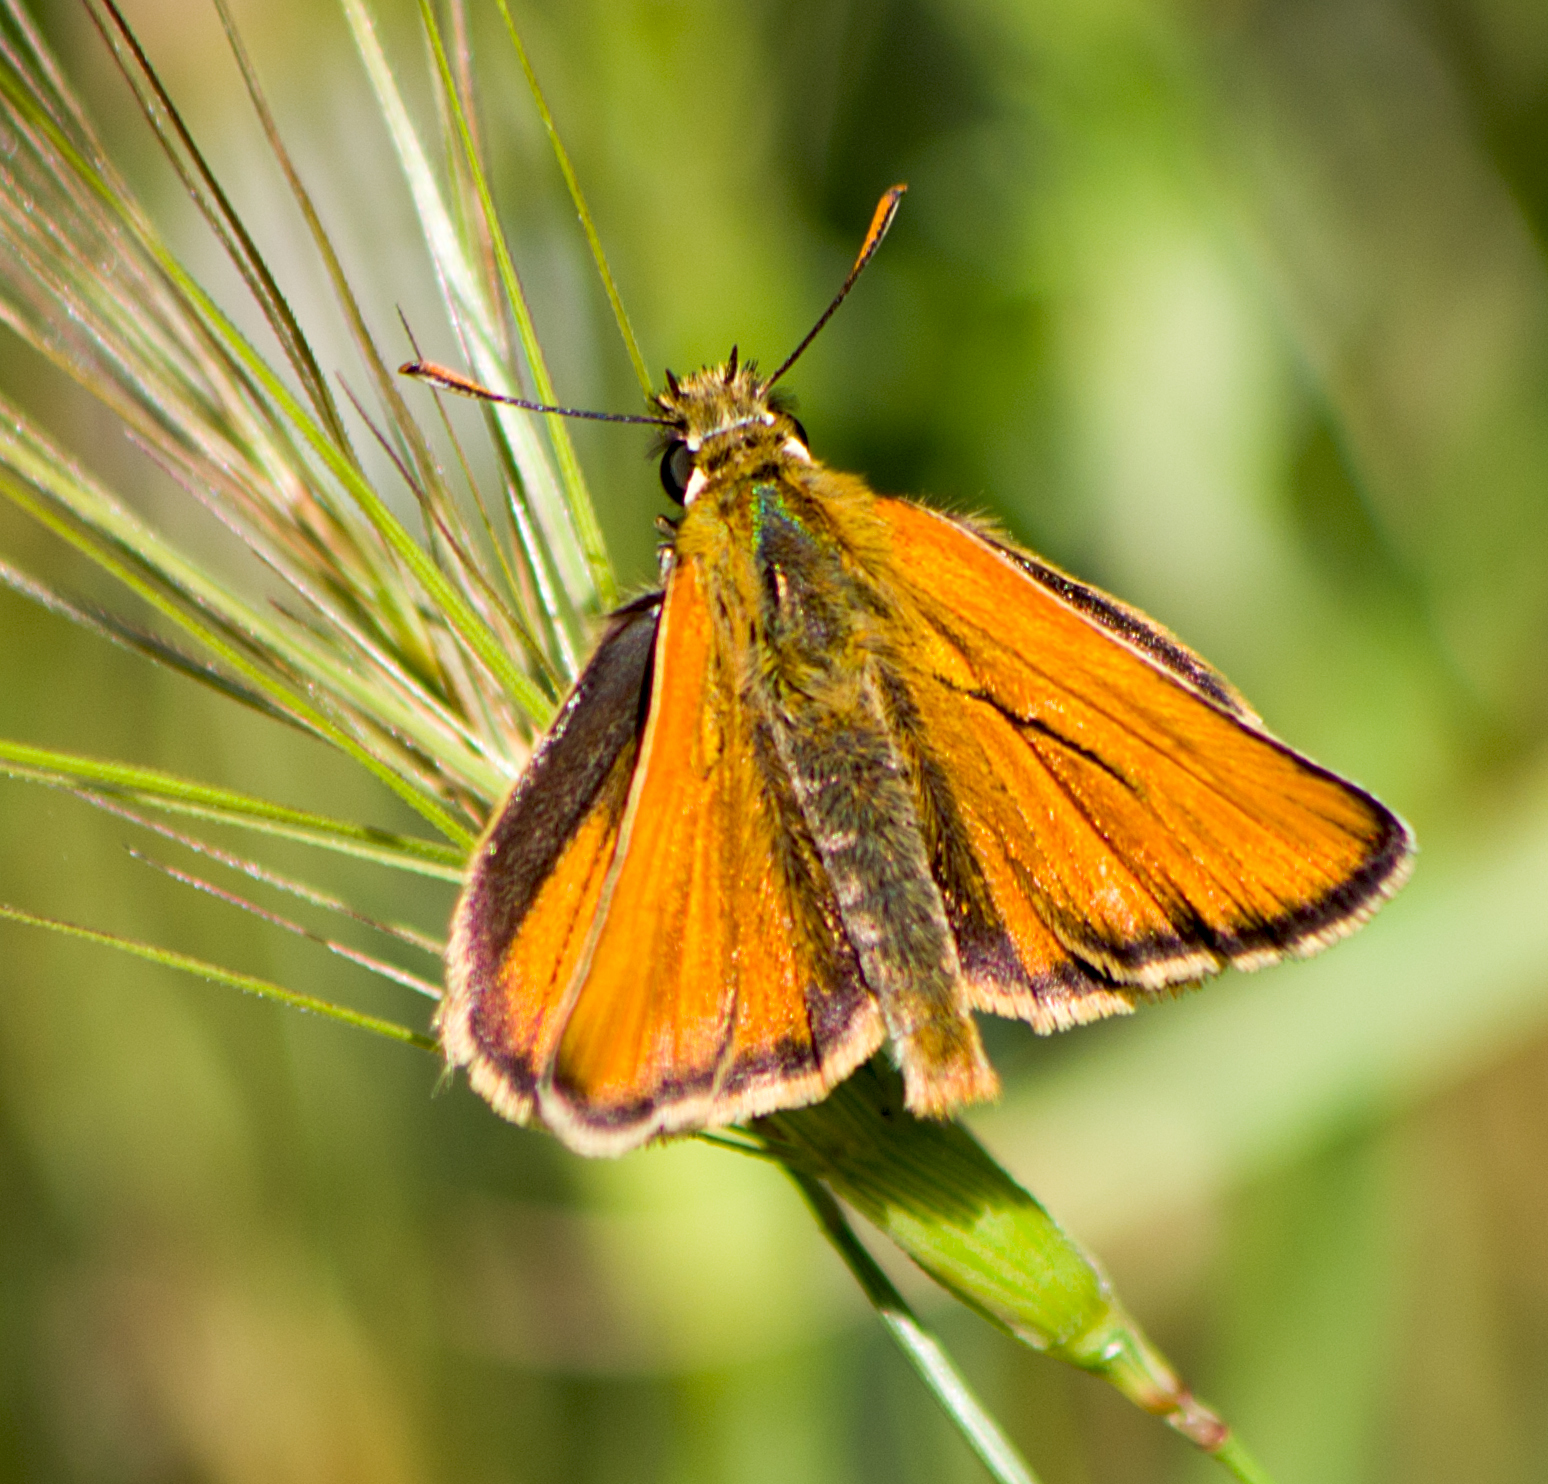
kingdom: Animalia
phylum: Arthropoda
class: Insecta
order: Lepidoptera
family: Hesperiidae
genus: Thymelicus
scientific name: Thymelicus sylvestris
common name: Small skipper
